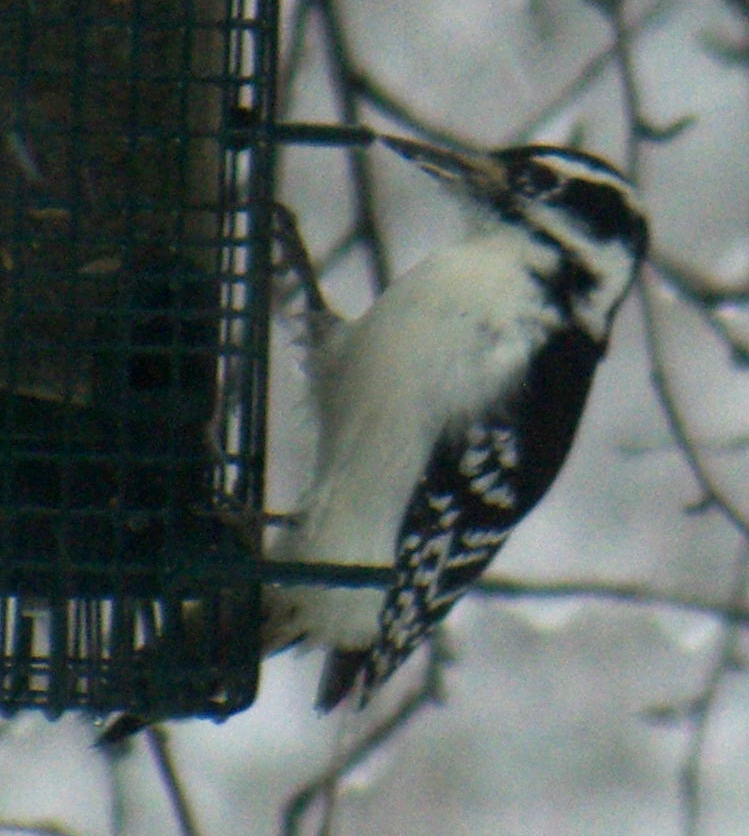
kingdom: Animalia
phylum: Chordata
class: Aves
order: Piciformes
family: Picidae
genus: Leuconotopicus
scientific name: Leuconotopicus villosus
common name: Hairy woodpecker
